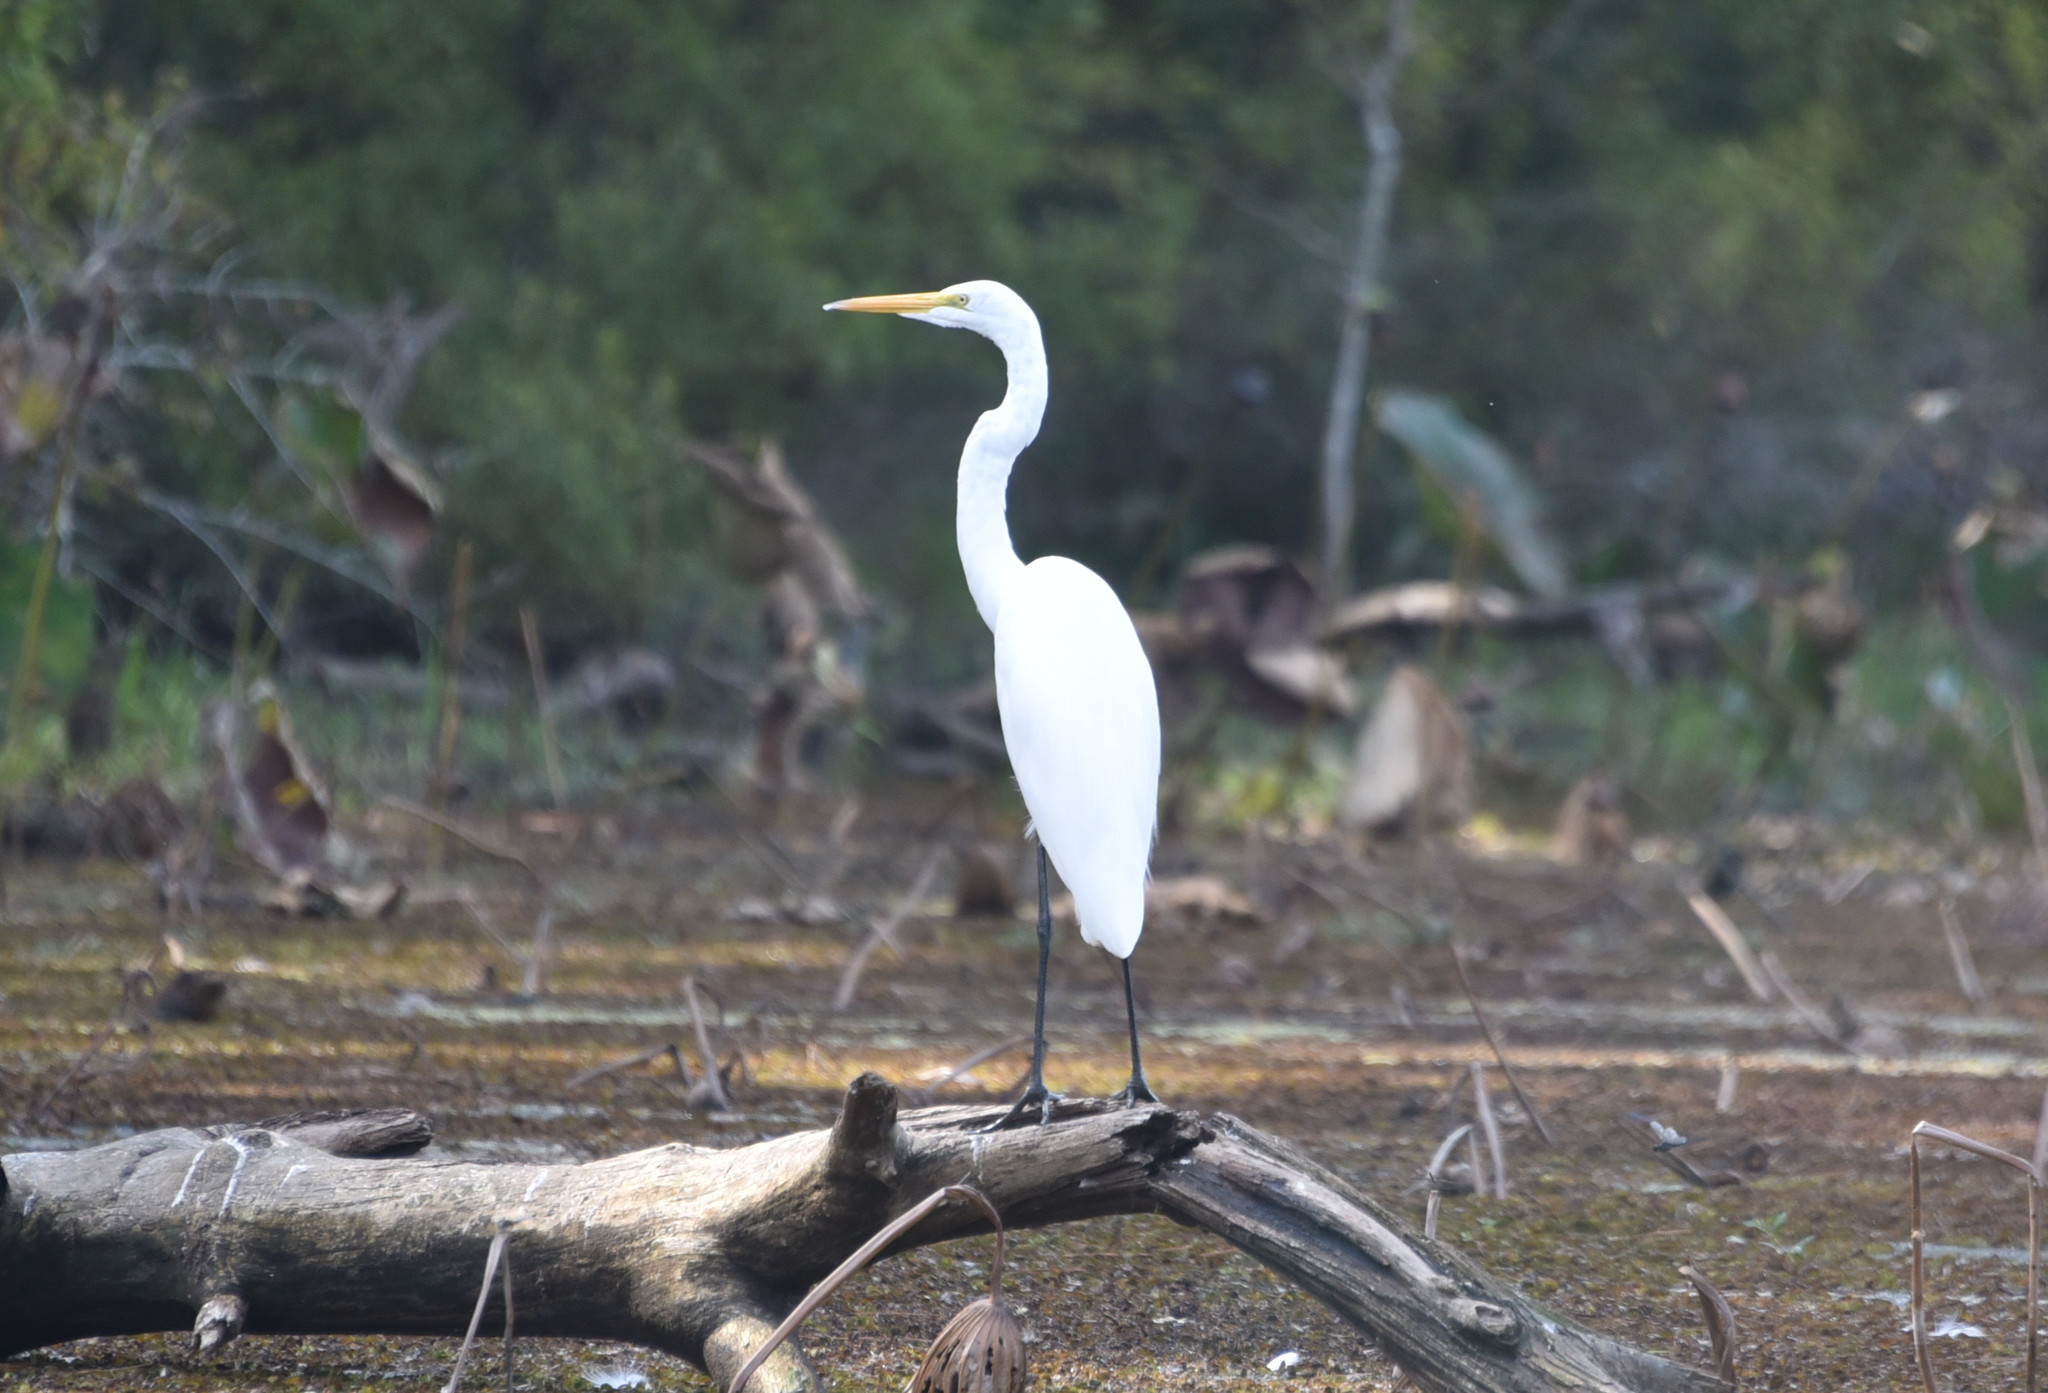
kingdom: Animalia
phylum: Chordata
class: Aves
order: Pelecaniformes
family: Ardeidae
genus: Ardea
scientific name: Ardea alba
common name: Great egret
